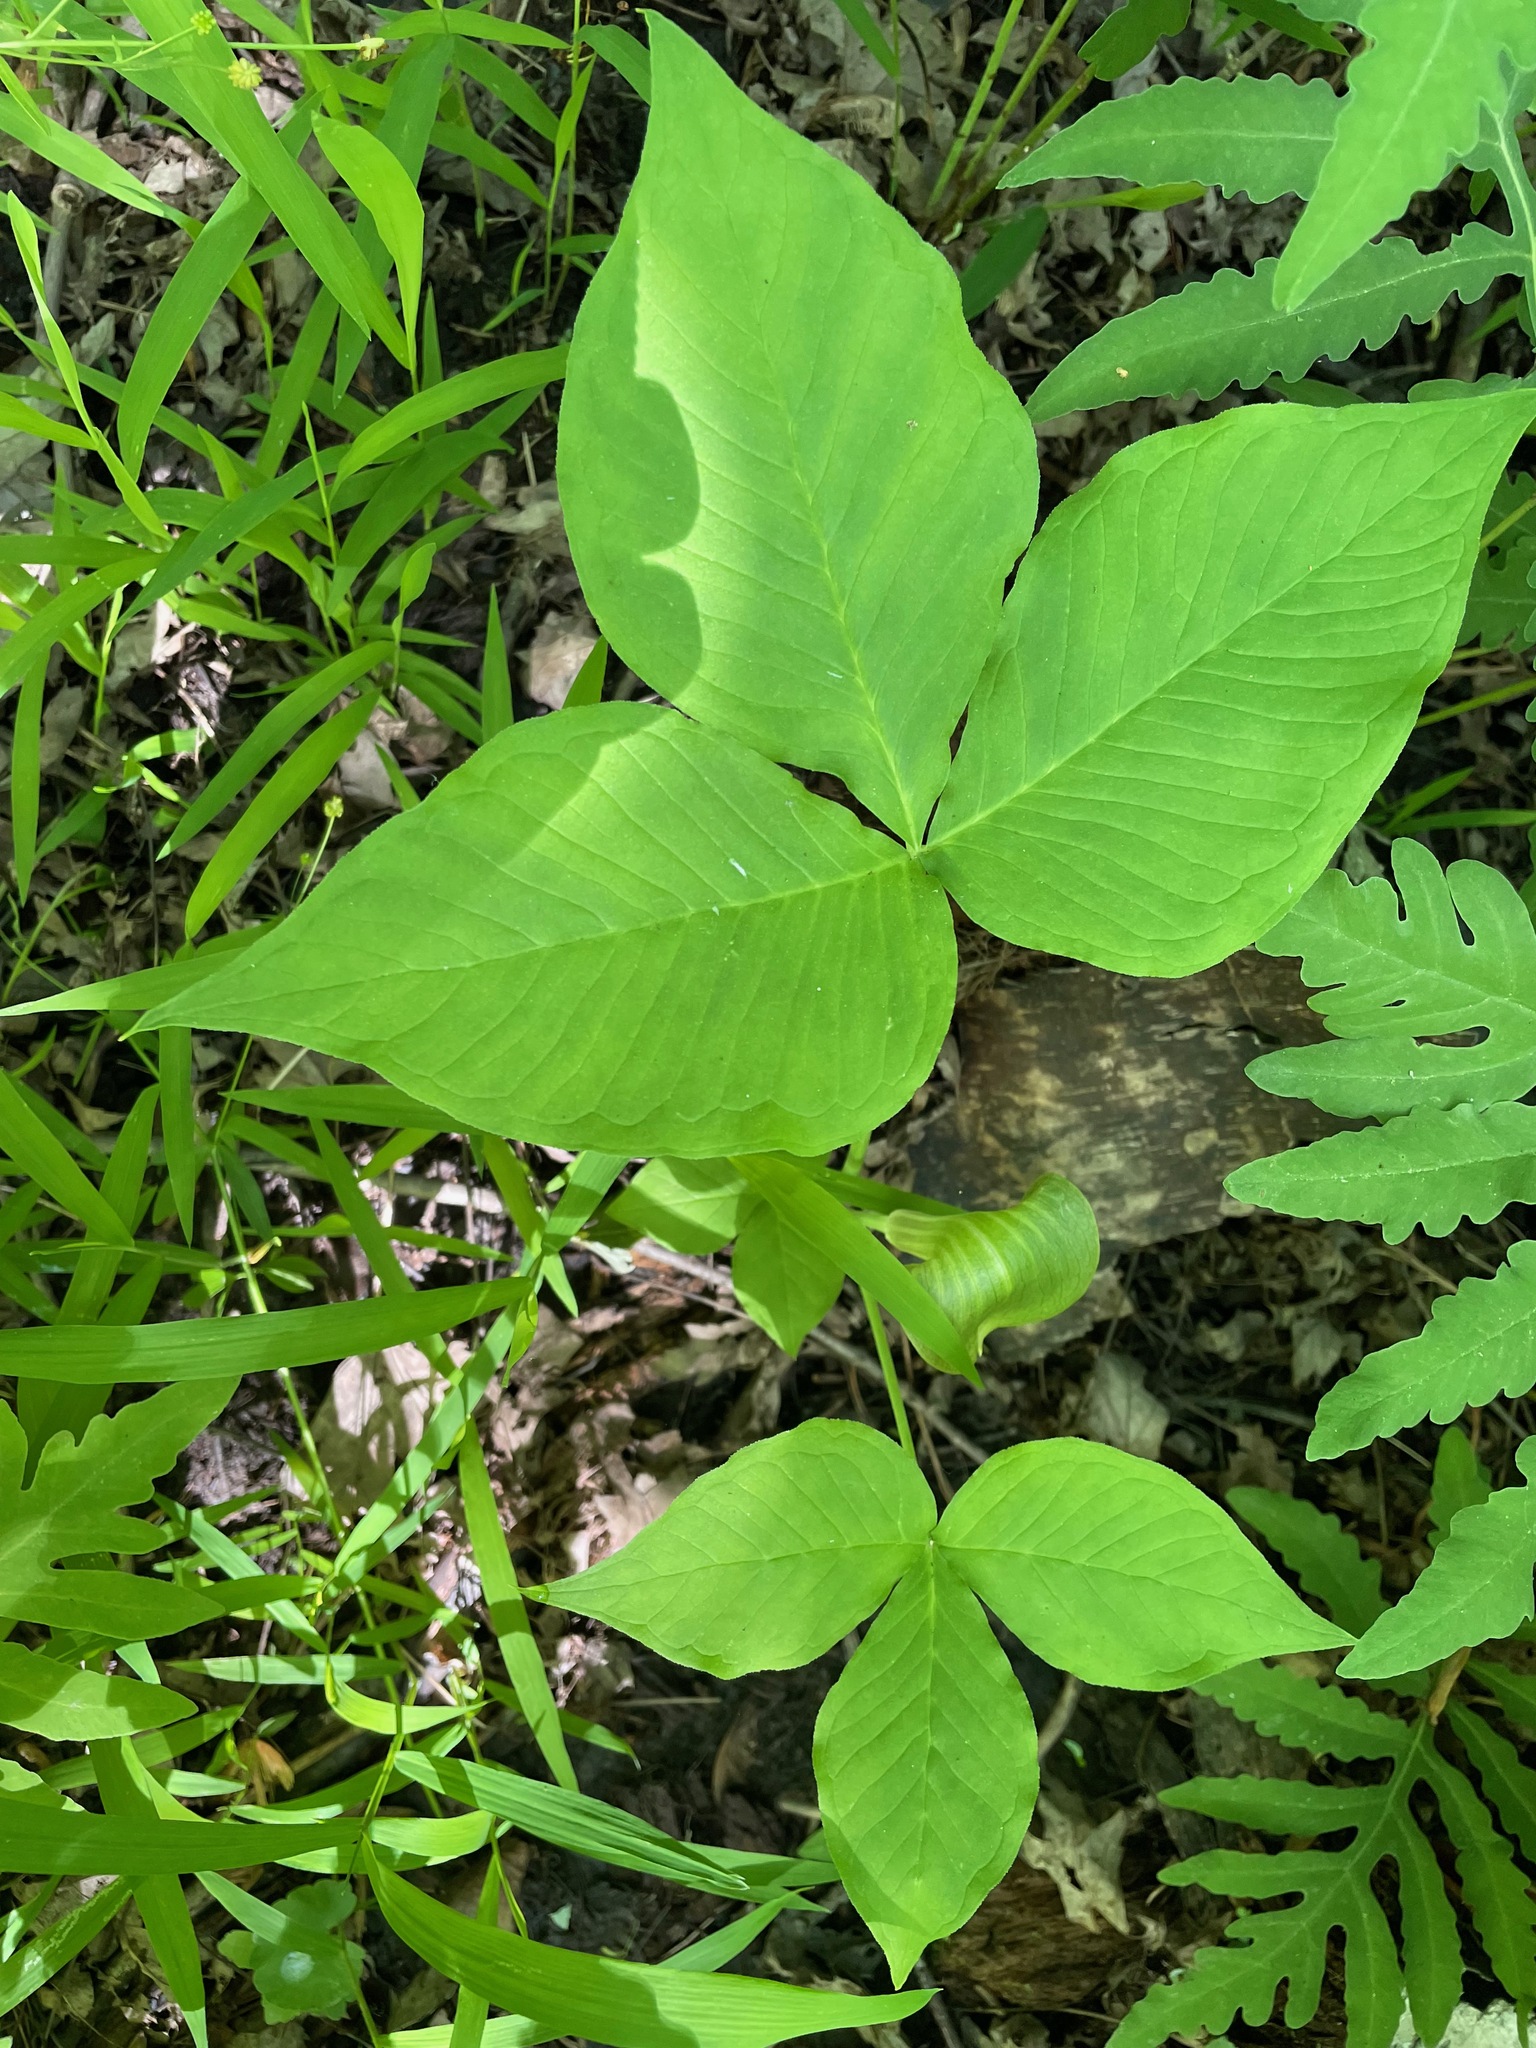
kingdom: Plantae
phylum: Tracheophyta
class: Liliopsida
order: Alismatales
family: Araceae
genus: Arisaema
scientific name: Arisaema triphyllum
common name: Jack-in-the-pulpit
